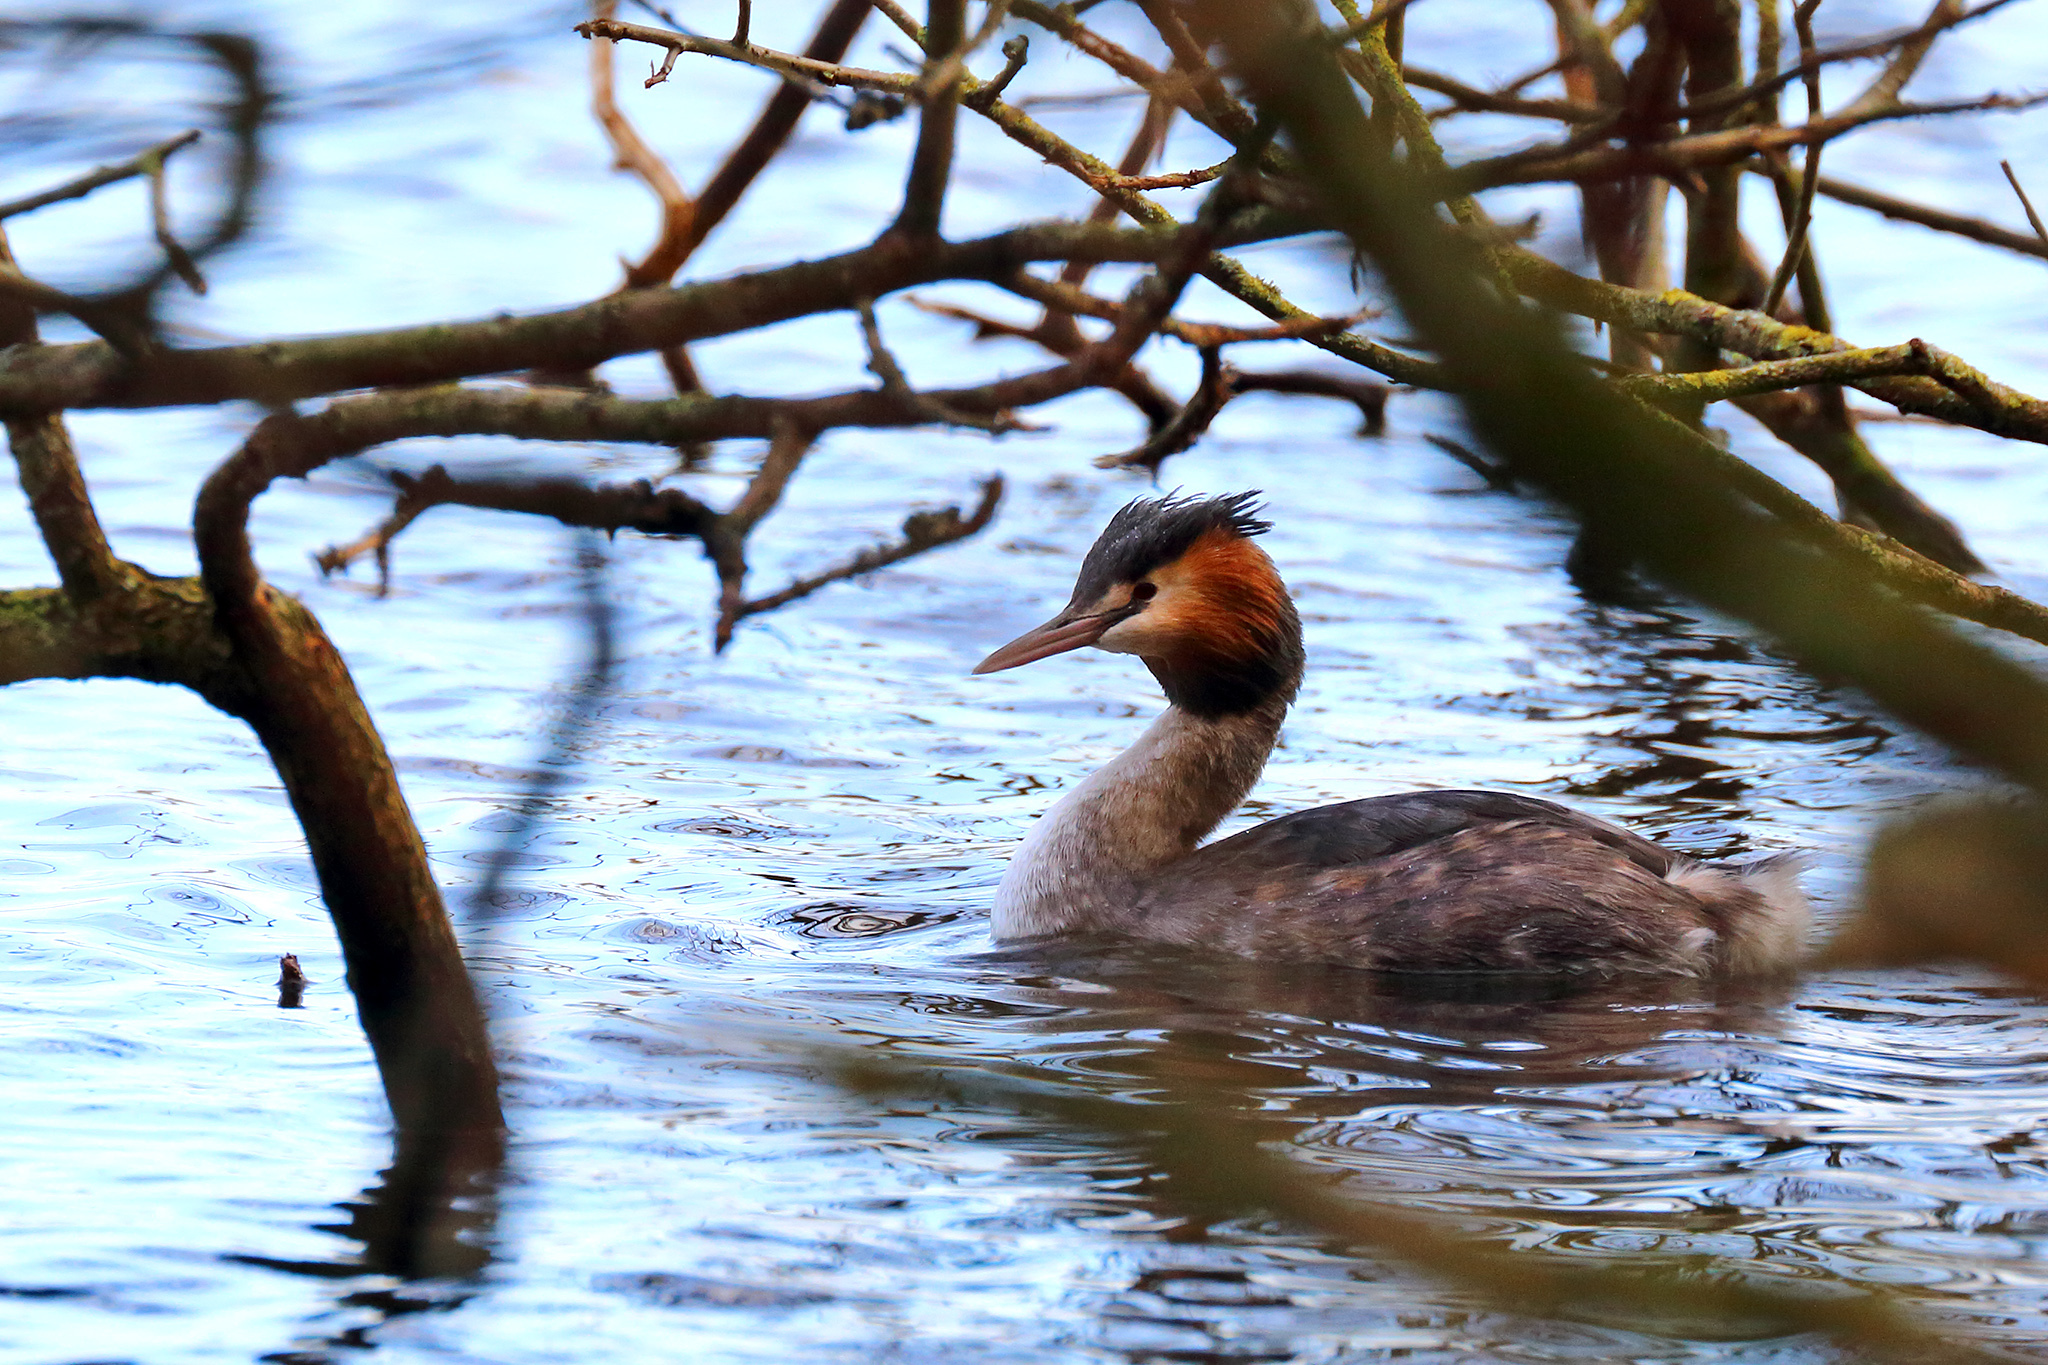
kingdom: Animalia
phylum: Chordata
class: Aves
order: Podicipediformes
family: Podicipedidae
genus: Podiceps
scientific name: Podiceps cristatus
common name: Great crested grebe
